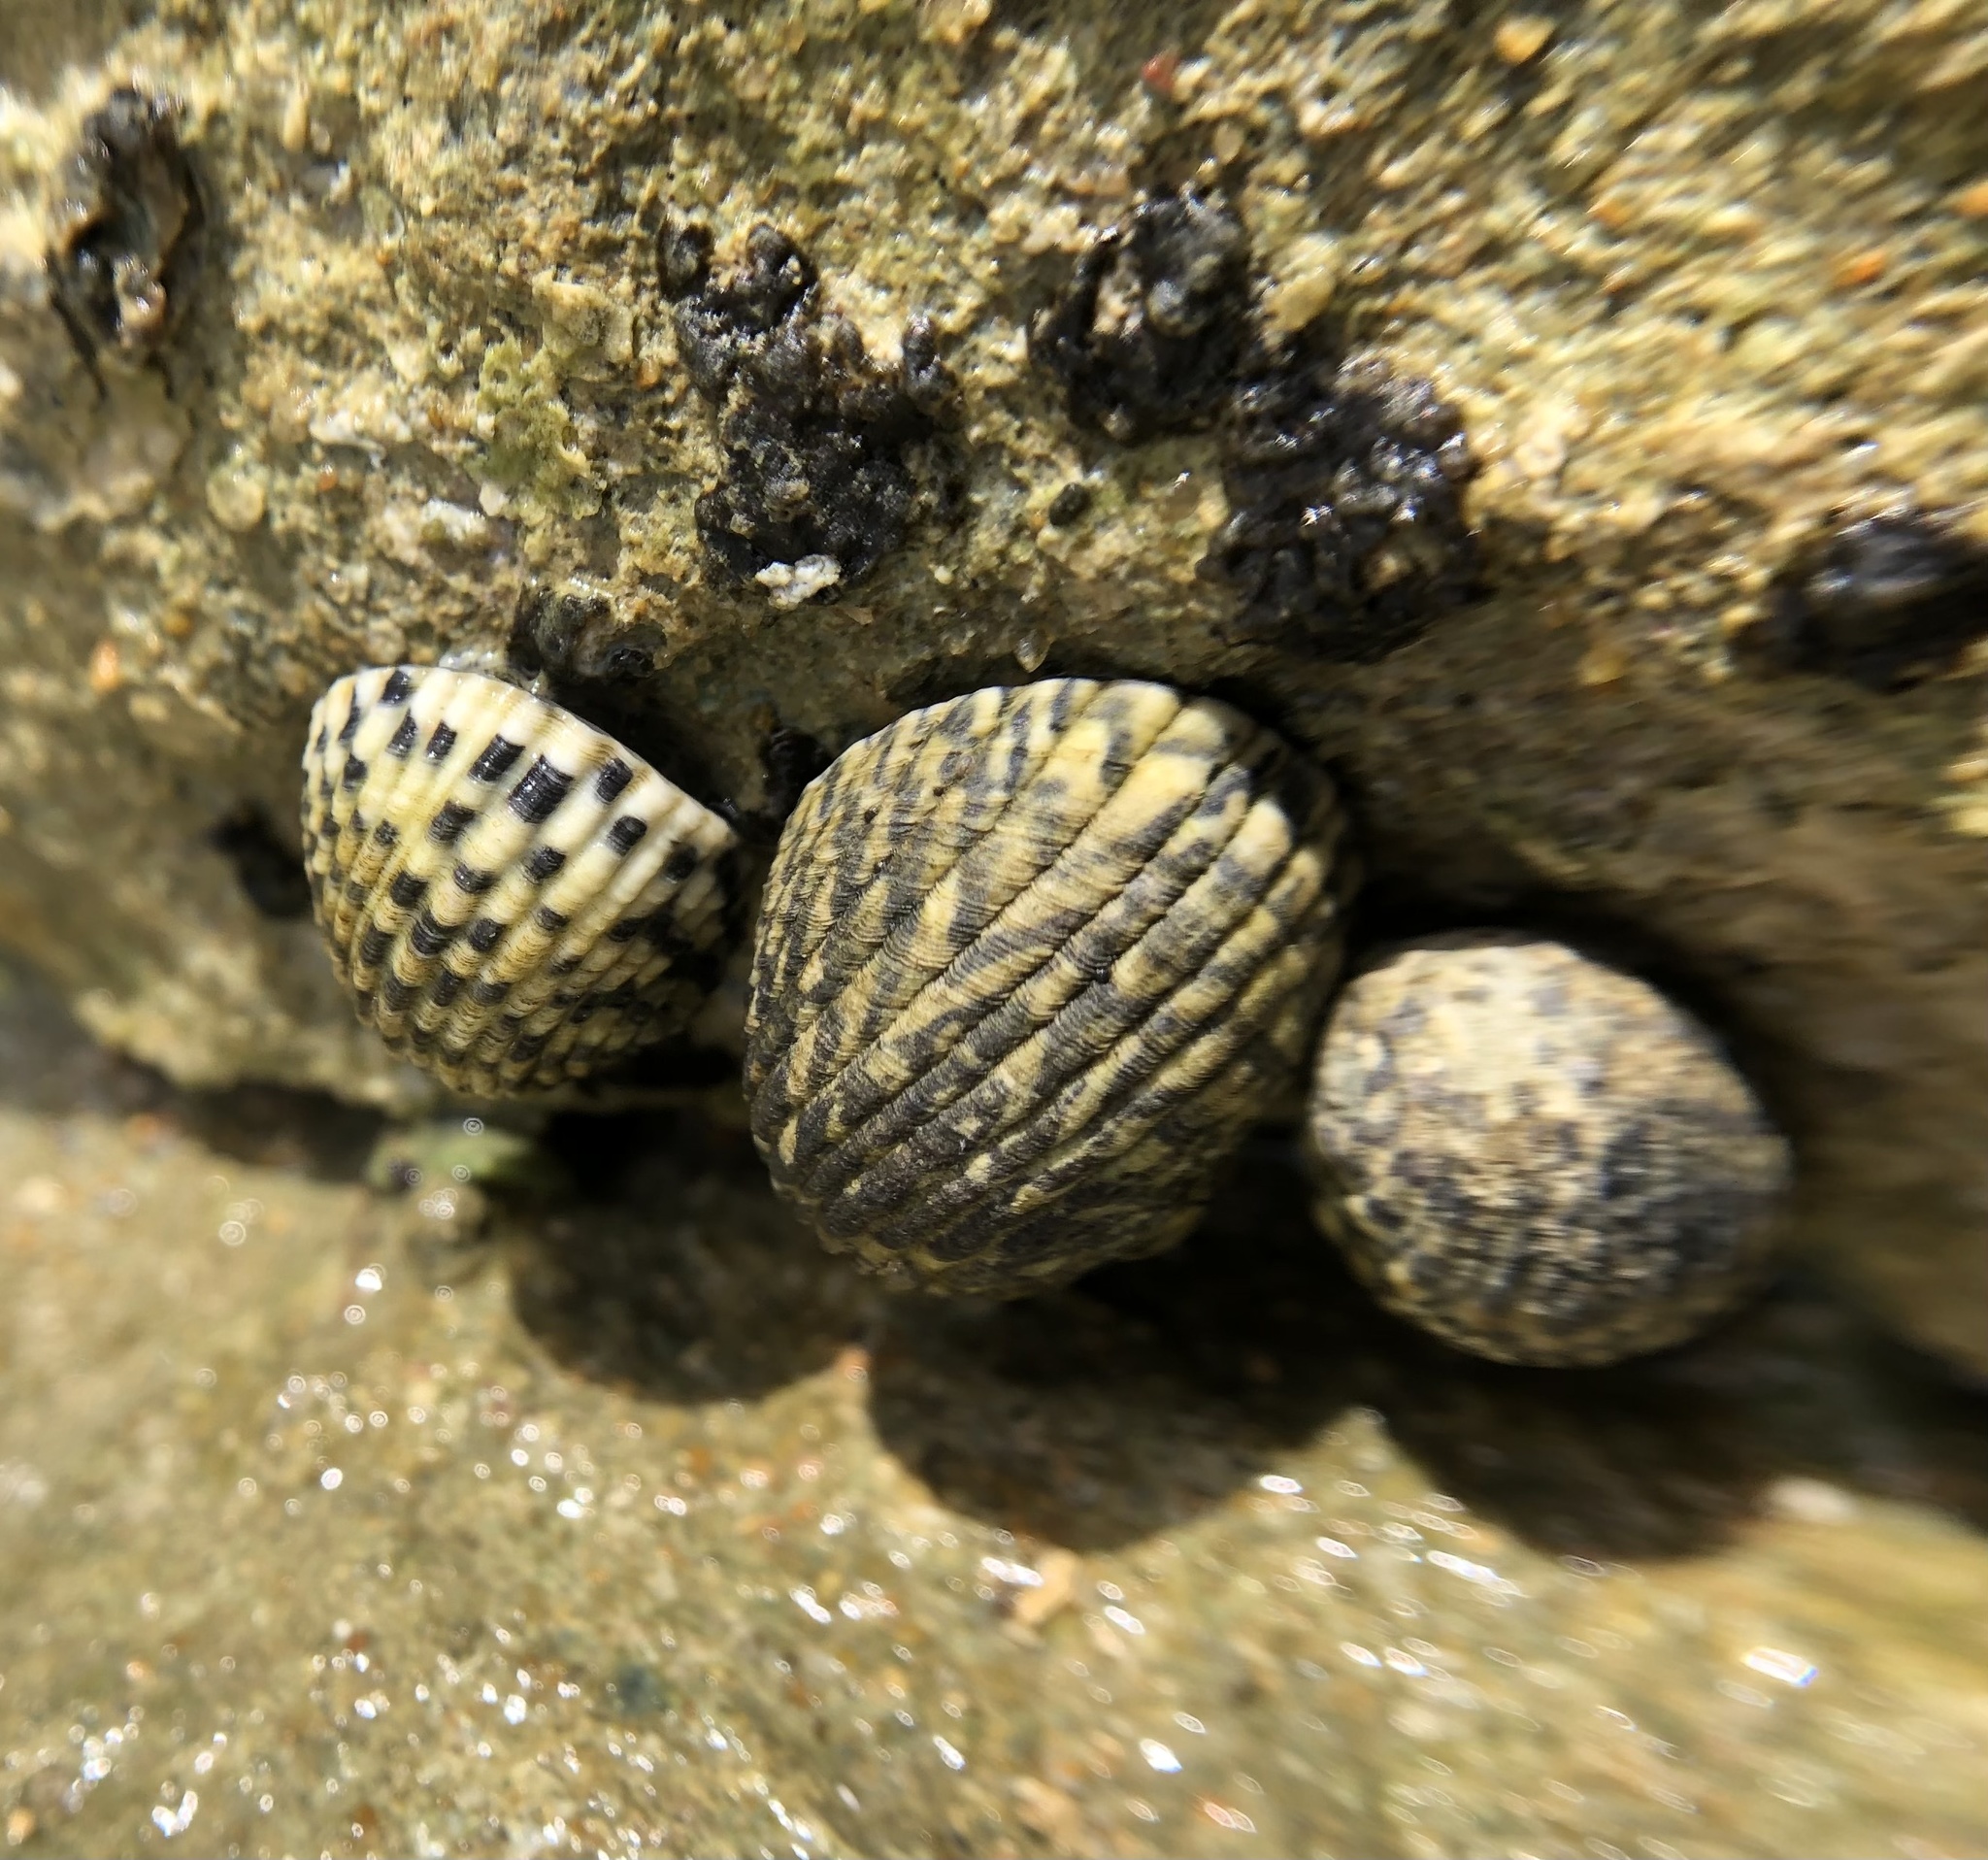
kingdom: Animalia
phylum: Mollusca
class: Gastropoda
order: Cycloneritida
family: Neritidae
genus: Nerita
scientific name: Nerita tessellata
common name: Checkered nerite
